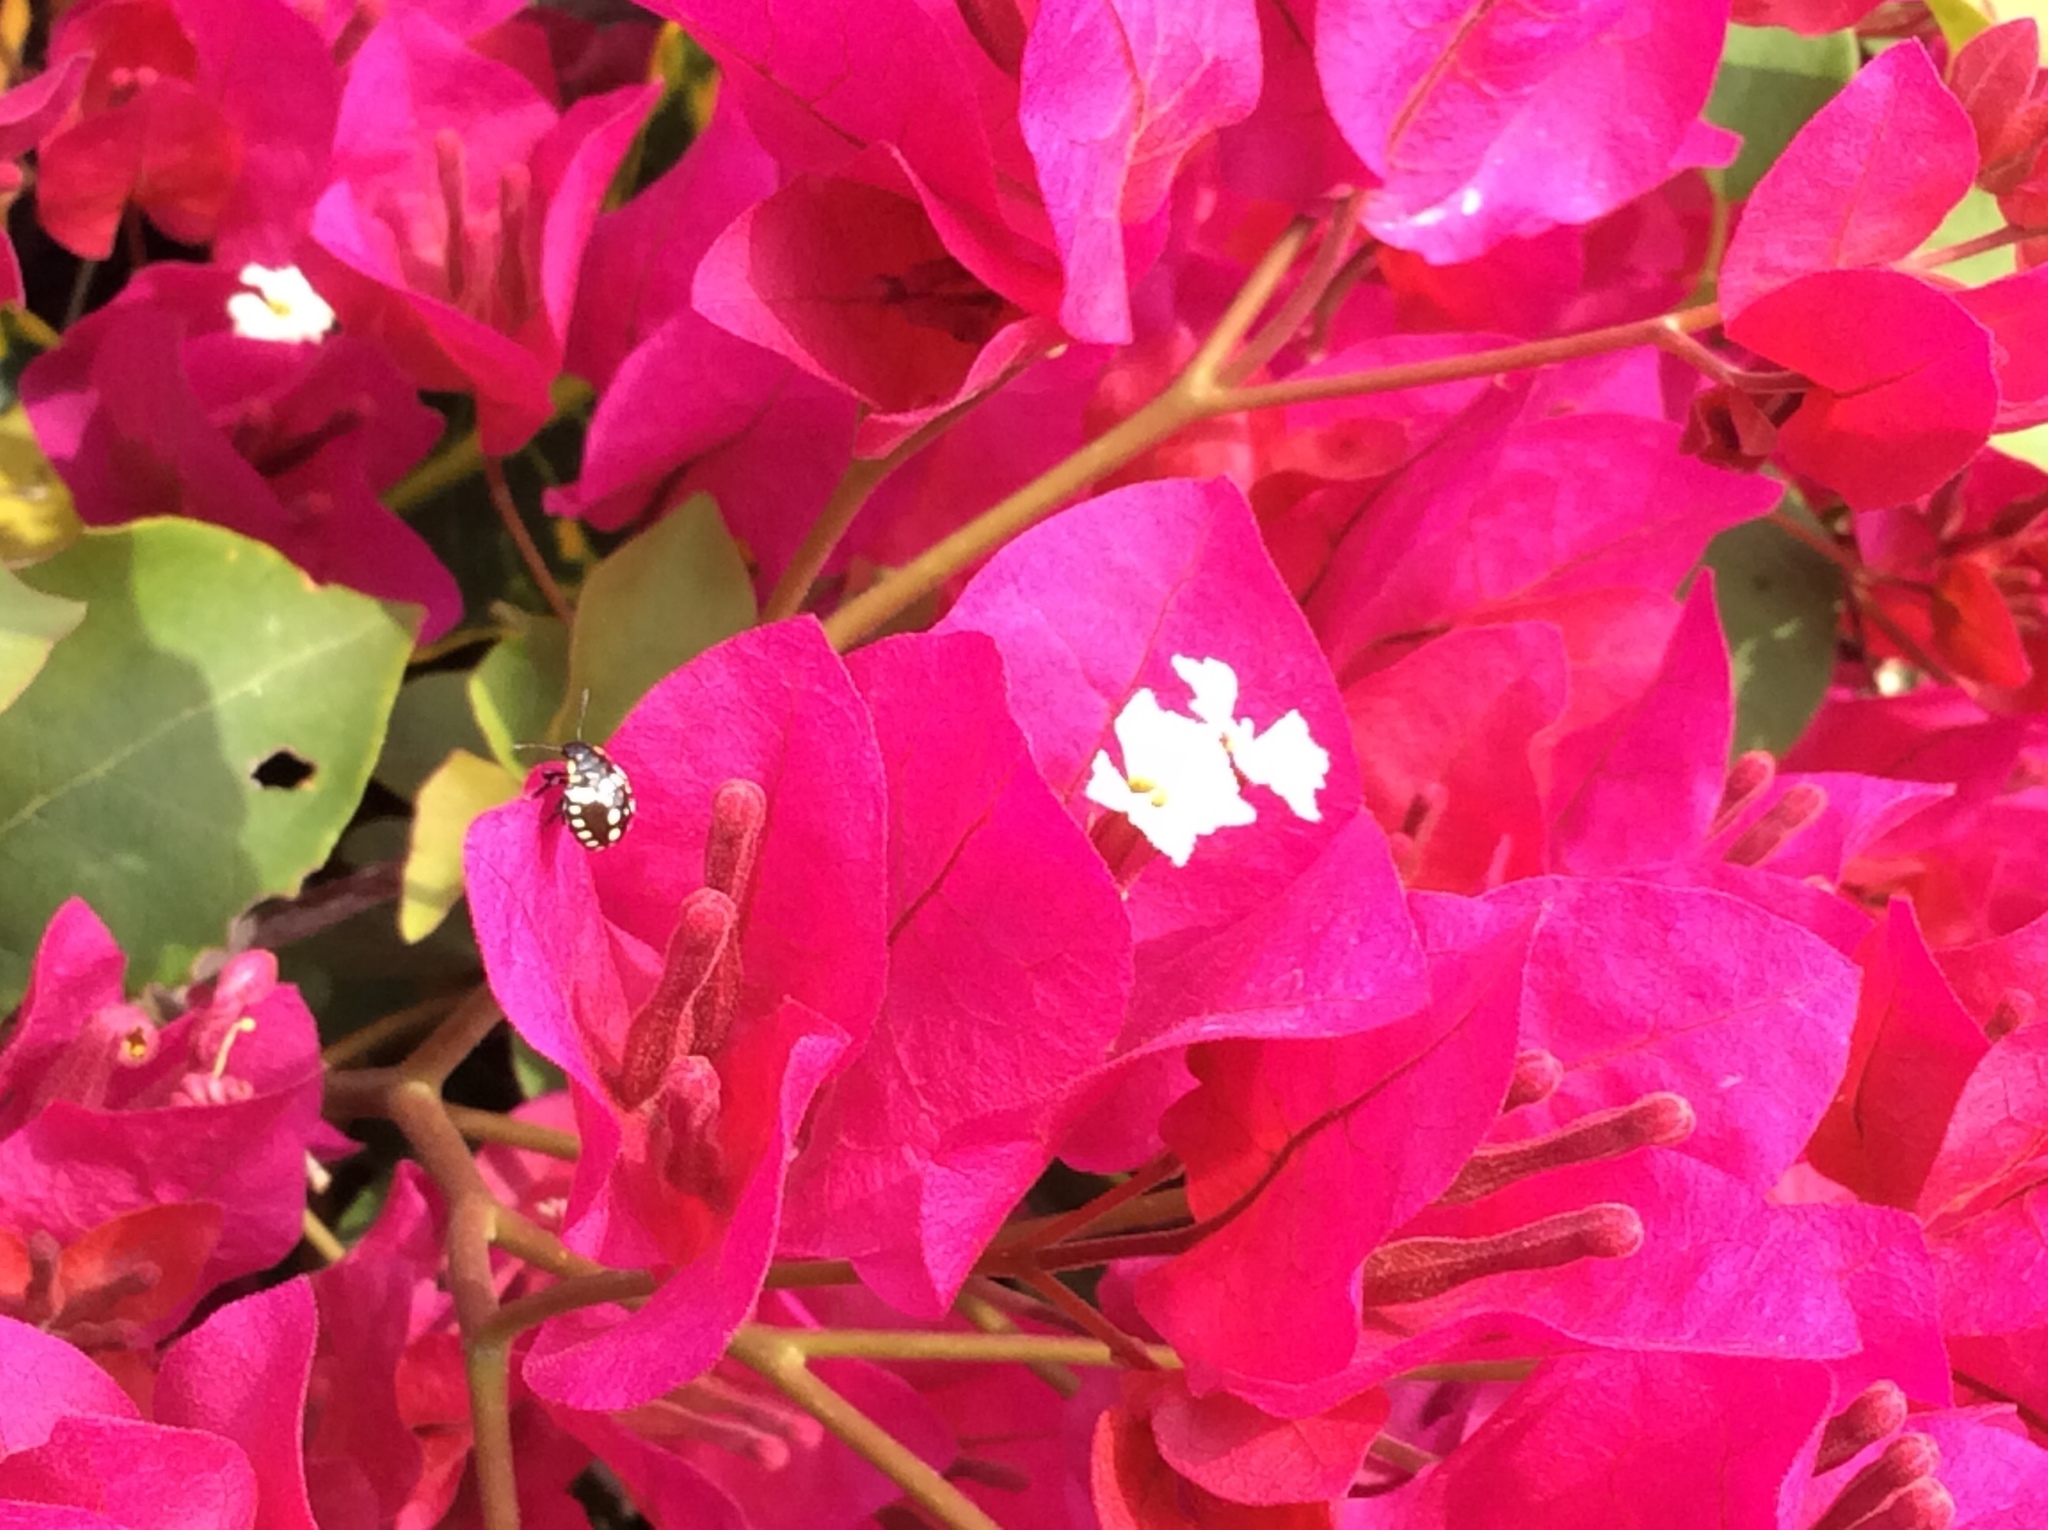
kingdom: Animalia
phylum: Arthropoda
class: Insecta
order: Hemiptera
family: Pentatomidae
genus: Nezara
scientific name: Nezara viridula
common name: Southern green stink bug
